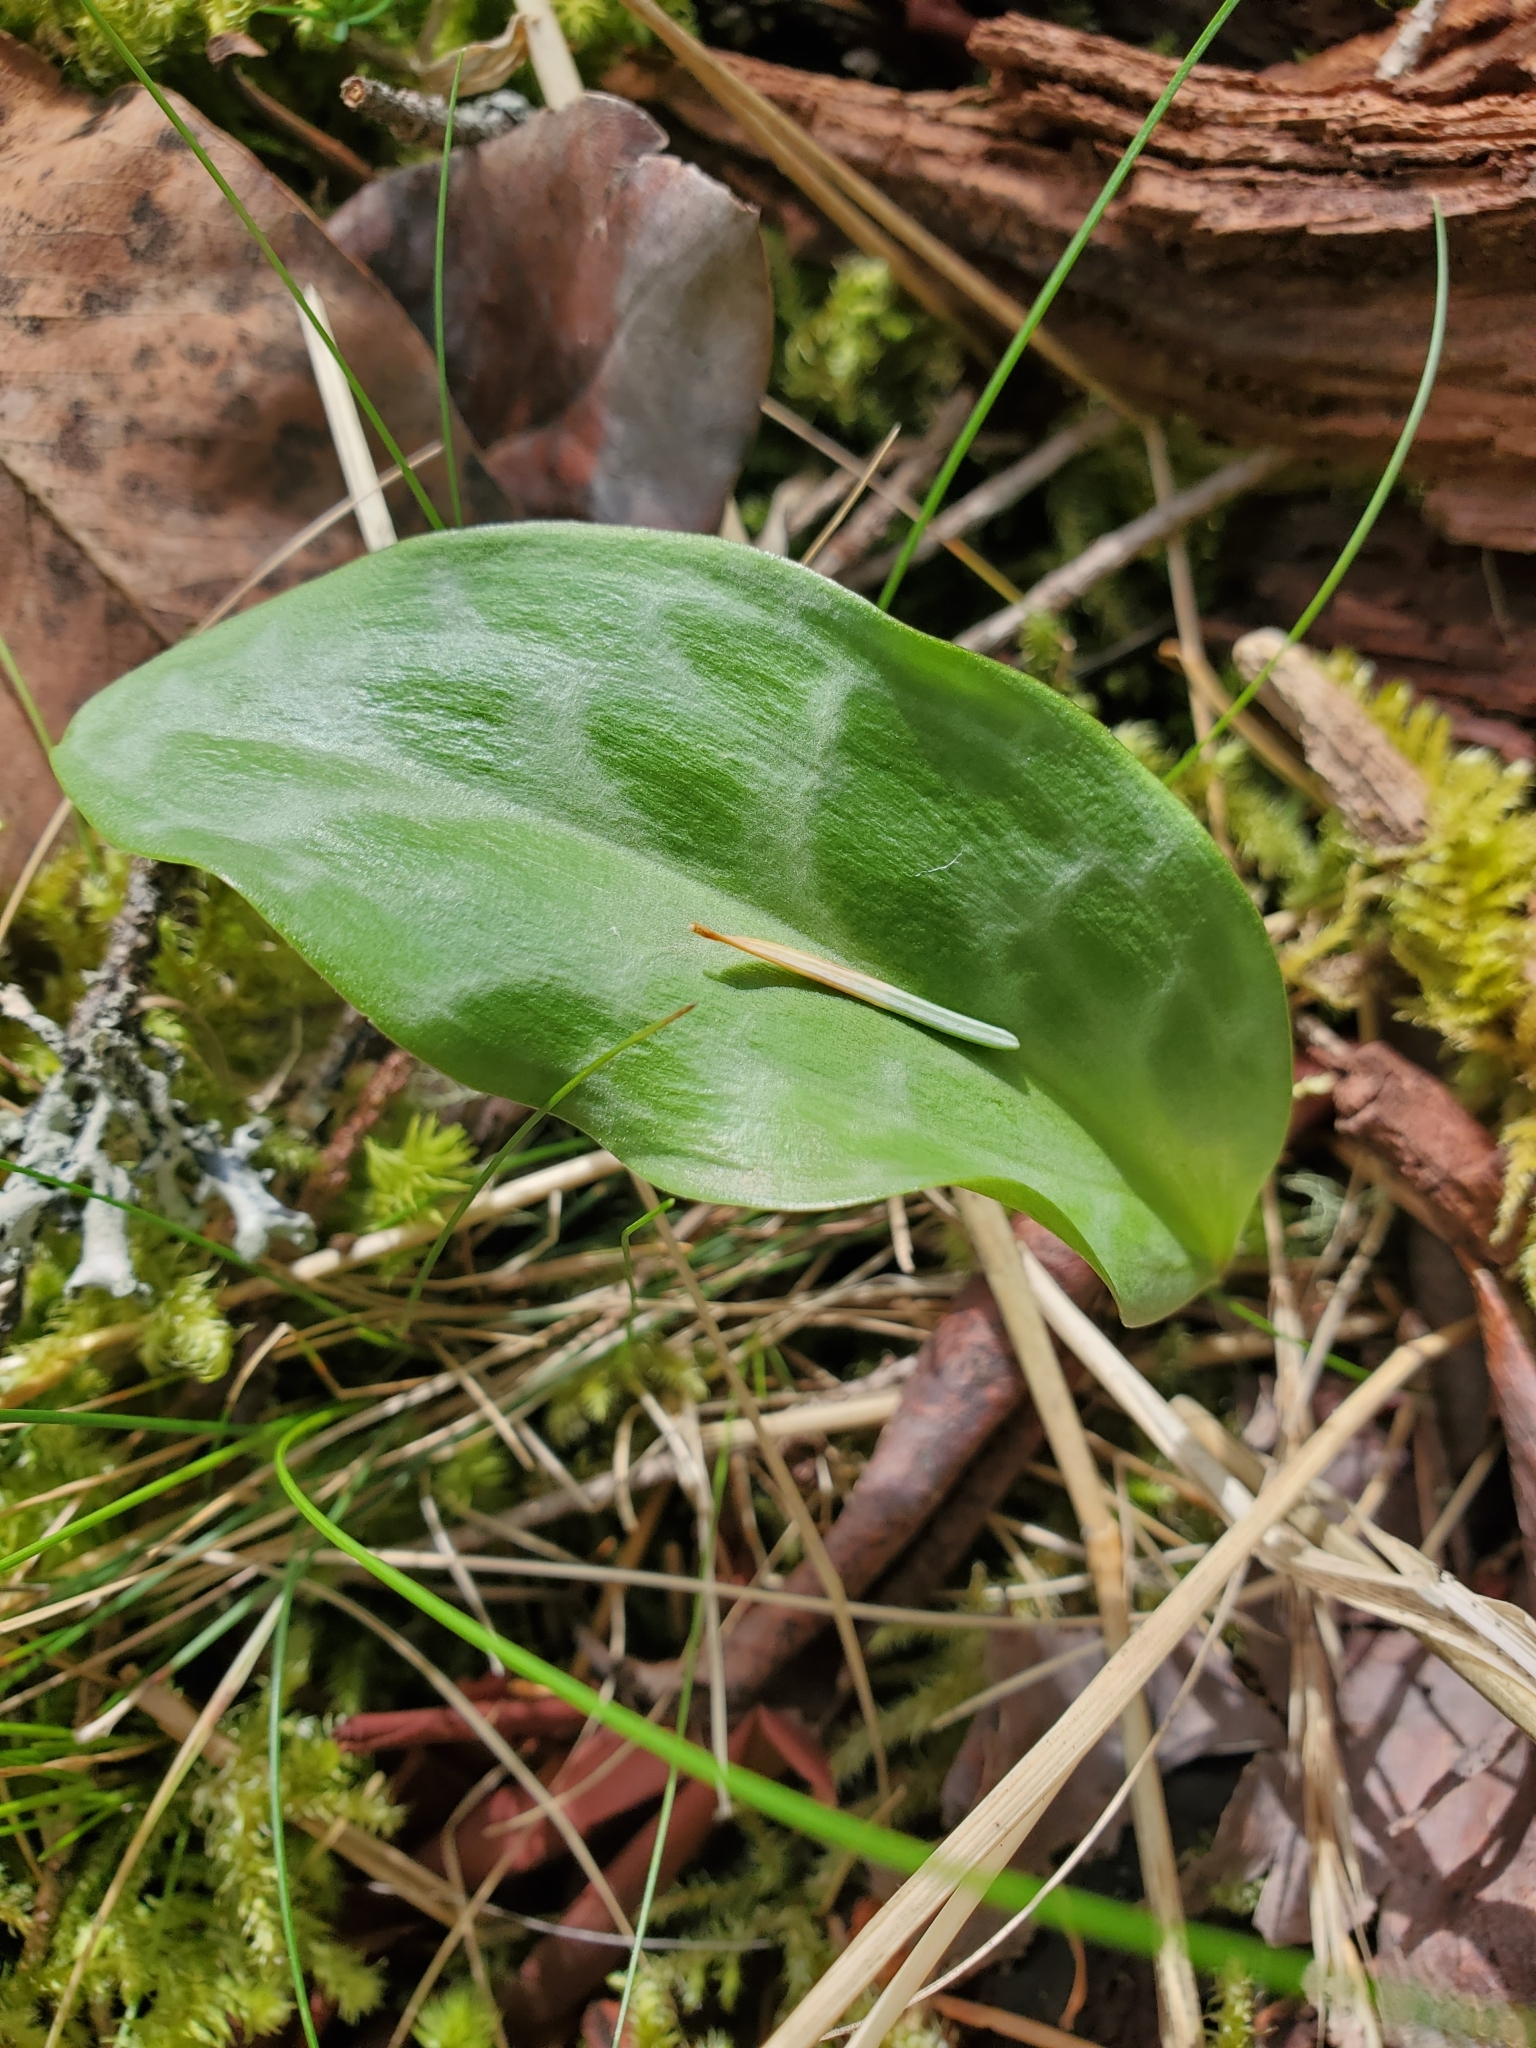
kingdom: Plantae
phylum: Tracheophyta
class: Liliopsida
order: Liliales
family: Liliaceae
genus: Erythronium
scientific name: Erythronium oregonum
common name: Giant adder's-tongue
